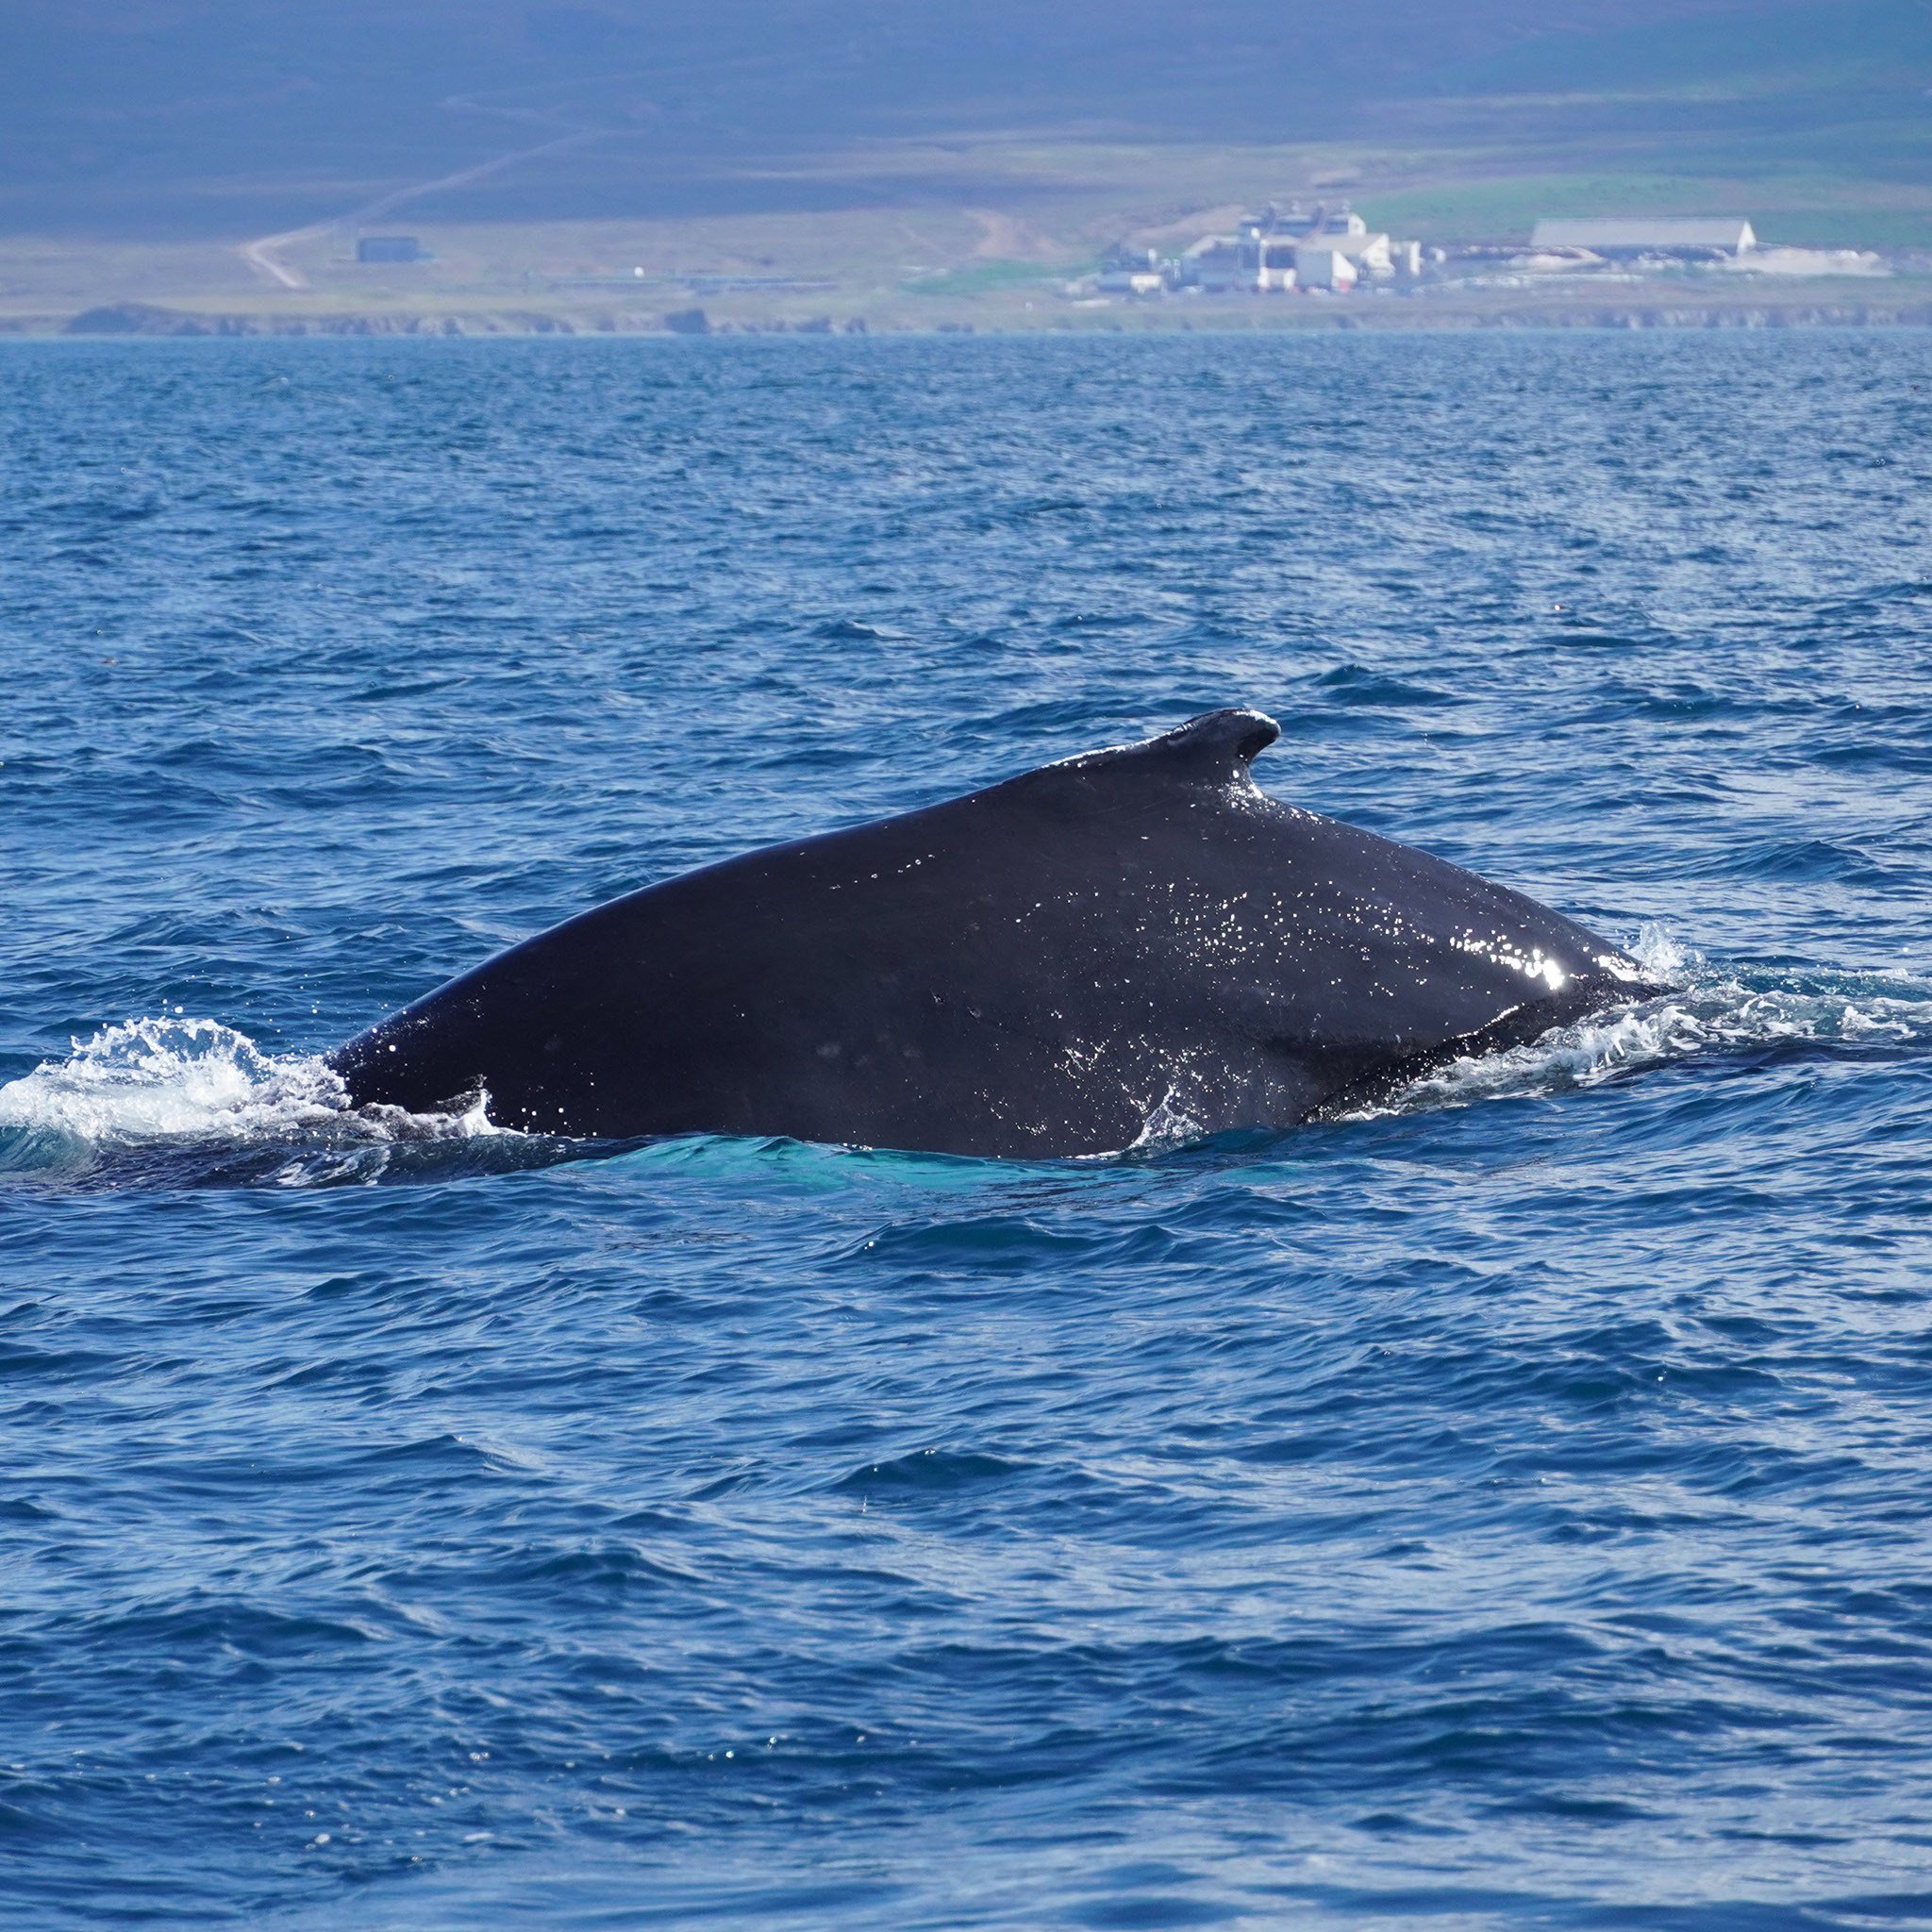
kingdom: Animalia
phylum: Chordata
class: Mammalia
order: Cetacea
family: Balaenopteridae
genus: Megaptera
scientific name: Megaptera novaeangliae
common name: Humpback whale
